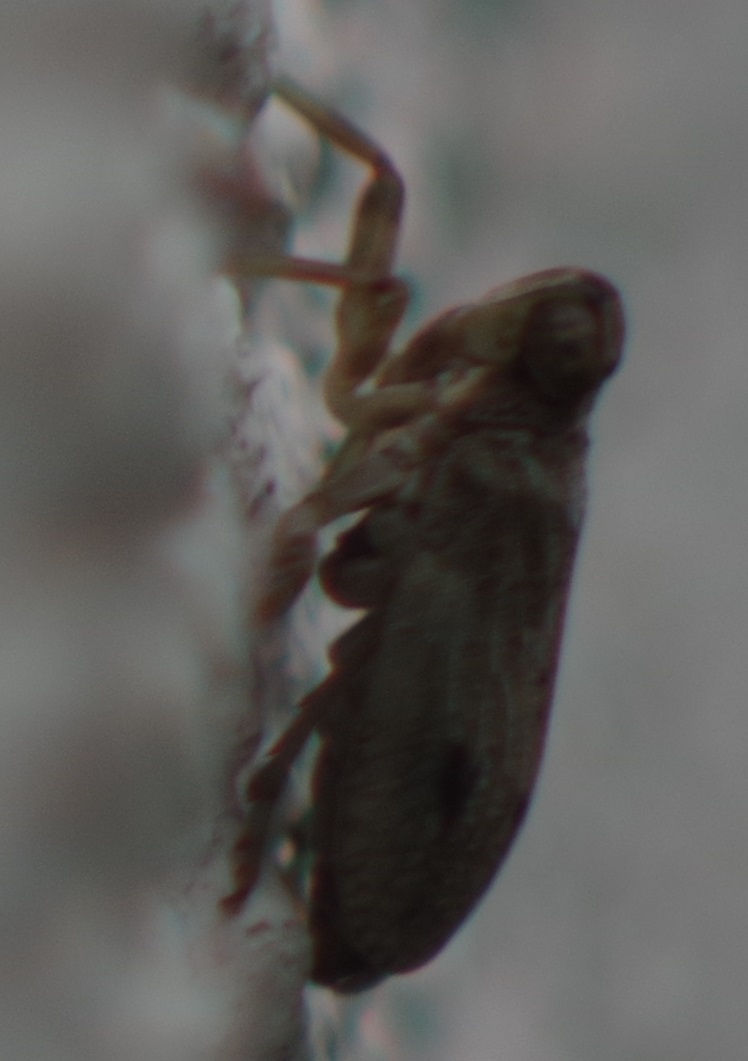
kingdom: Animalia
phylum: Arthropoda
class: Insecta
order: Hemiptera
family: Issidae
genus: Issus
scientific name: Issus coleoptratus
